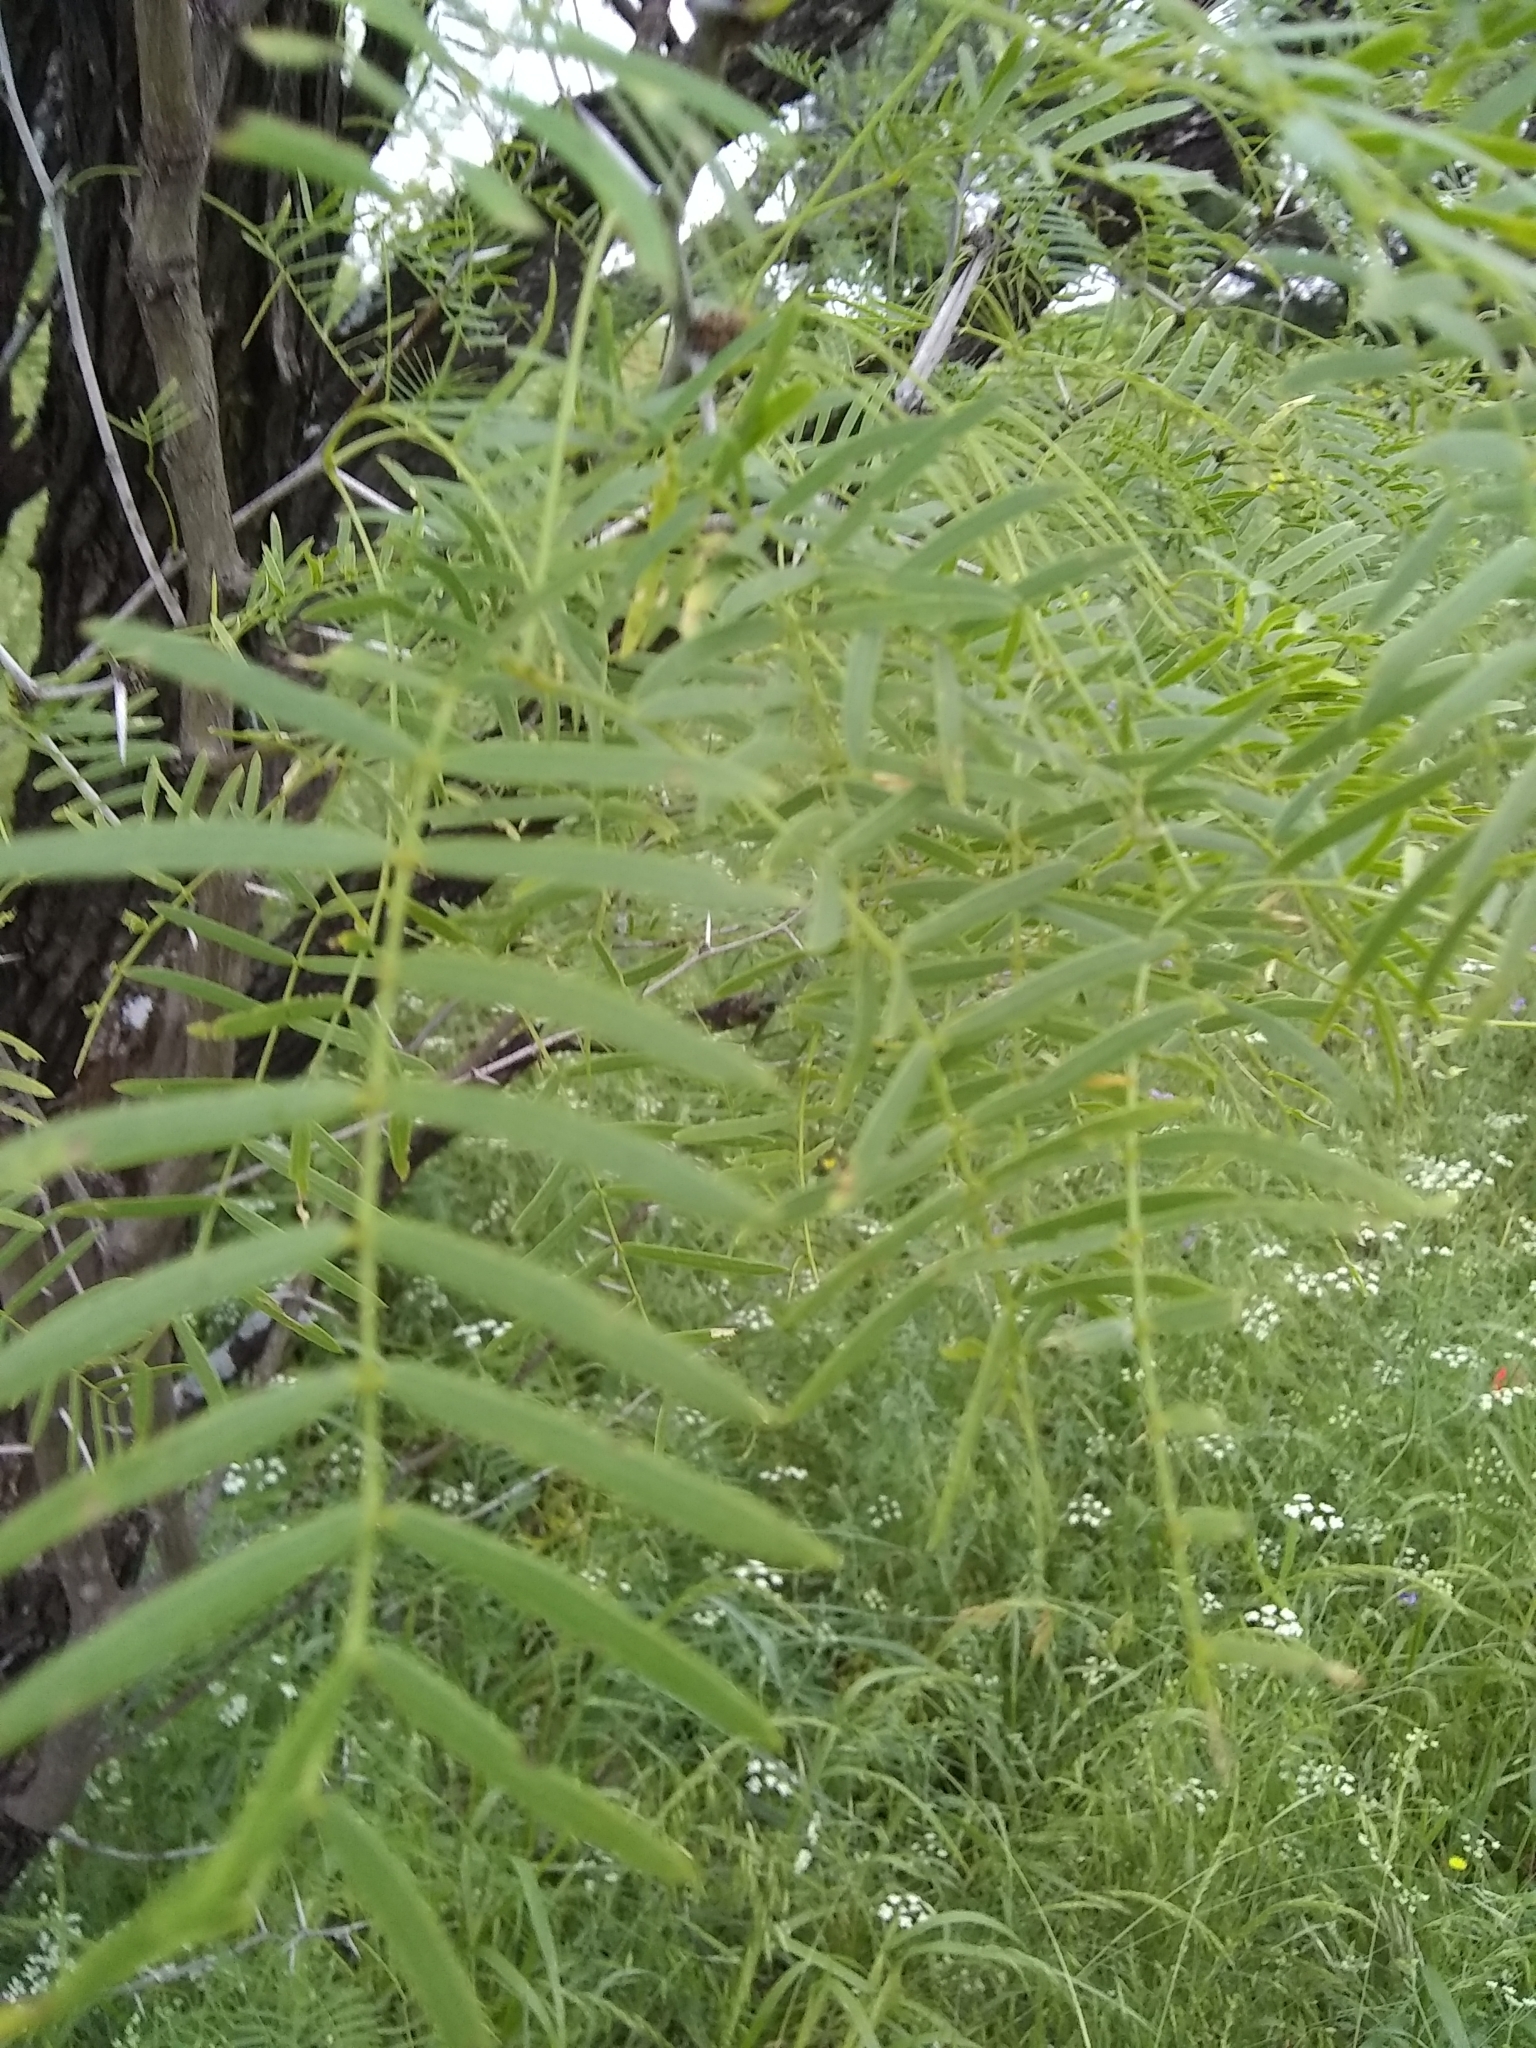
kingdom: Plantae
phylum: Tracheophyta
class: Magnoliopsida
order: Fabales
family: Fabaceae
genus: Prosopis
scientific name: Prosopis glandulosa
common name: Honey mesquite
